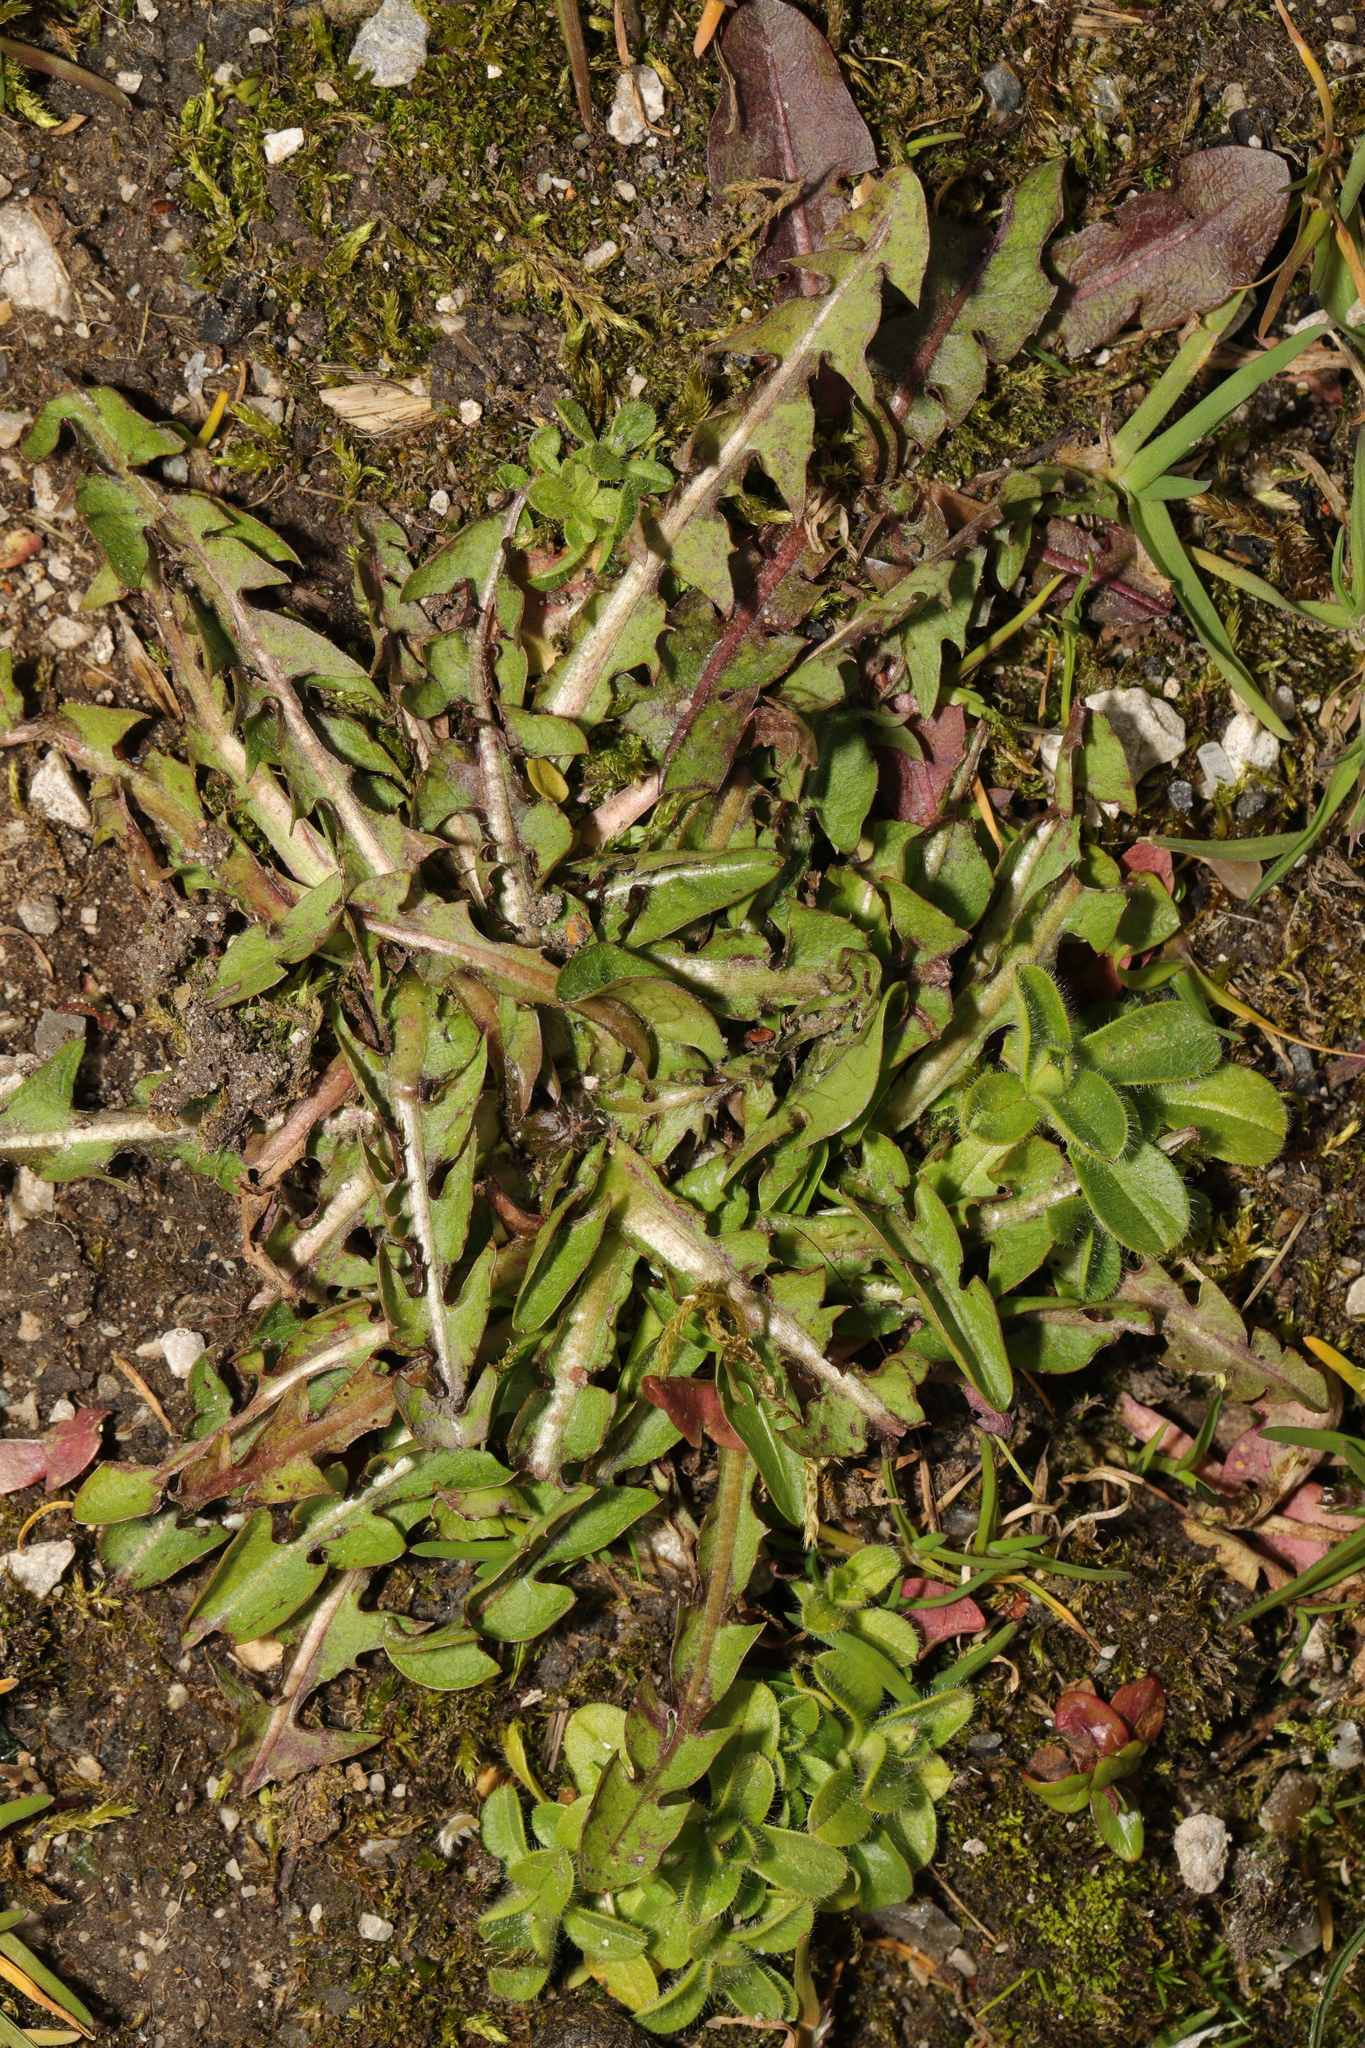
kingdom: Plantae
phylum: Tracheophyta
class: Magnoliopsida
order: Asterales
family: Asteraceae
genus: Taraxacum
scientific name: Taraxacum officinale
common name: Common dandelion
